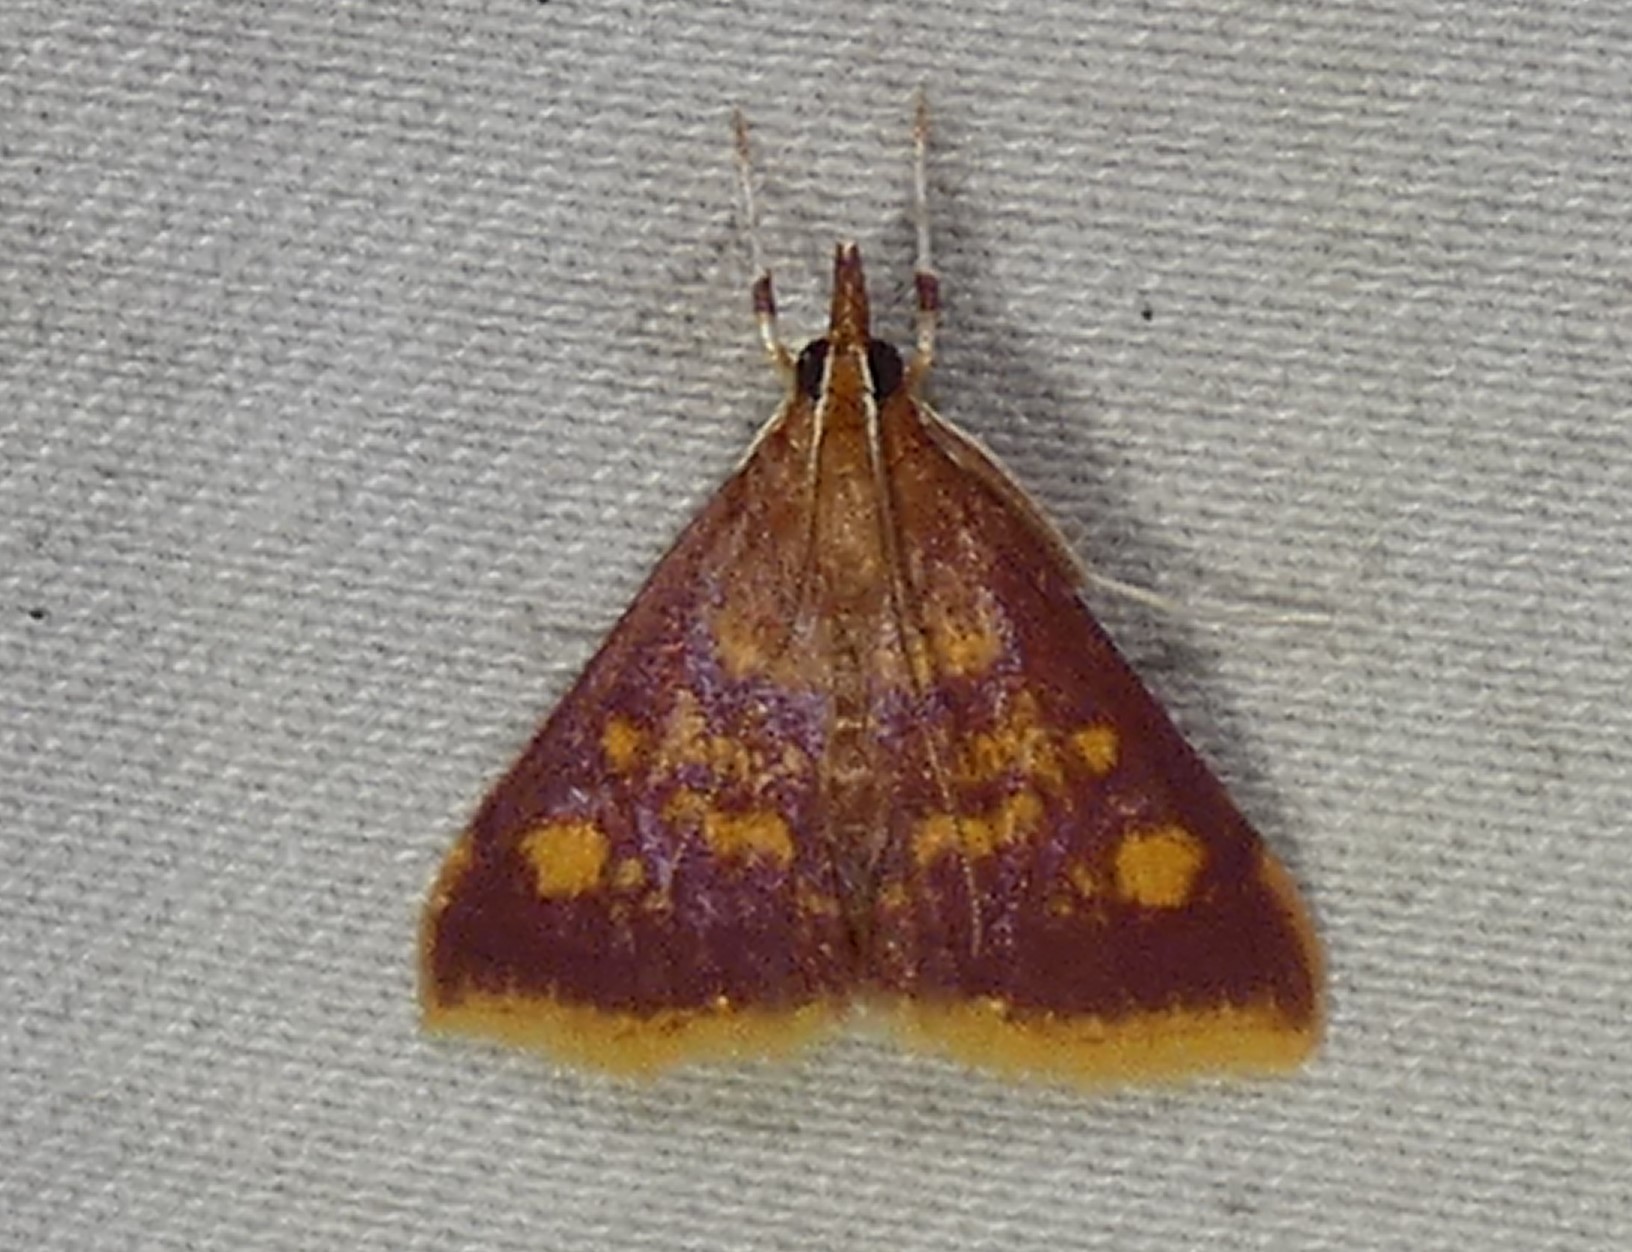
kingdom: Animalia
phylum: Arthropoda
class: Insecta
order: Lepidoptera
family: Crambidae
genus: Pyrausta
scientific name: Pyrausta acrionalis
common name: Mint-loving pyrausta moth
